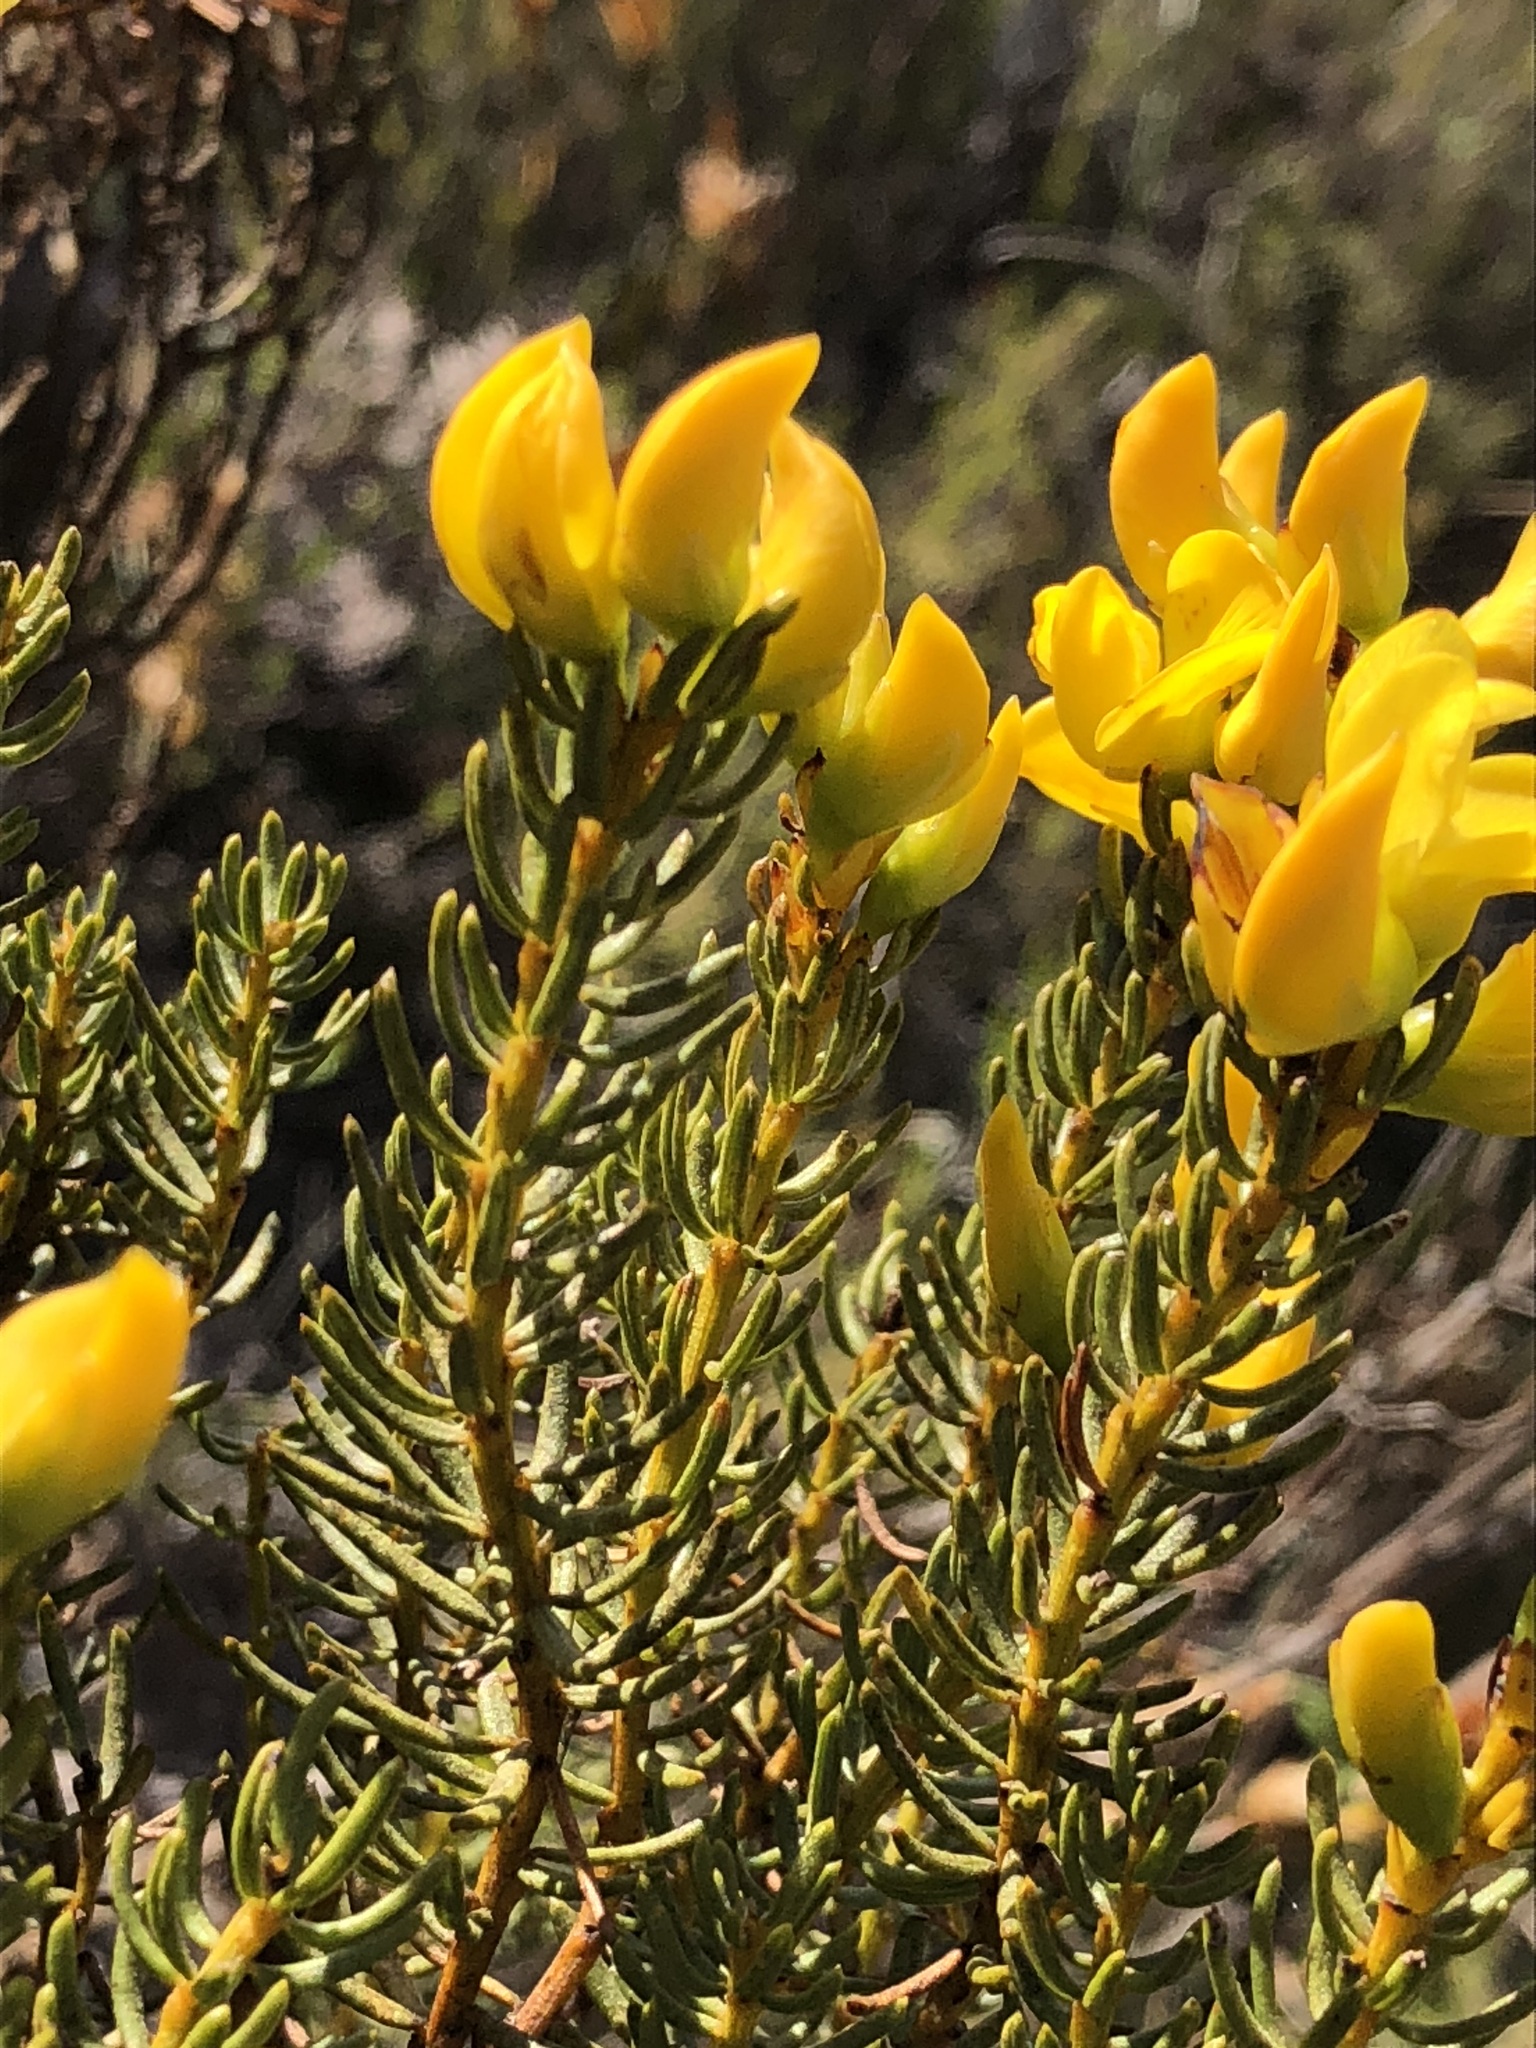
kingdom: Plantae
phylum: Tracheophyta
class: Magnoliopsida
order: Fabales
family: Fabaceae
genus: Cyclopia
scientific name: Cyclopia genistoides
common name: Honeybush tea
